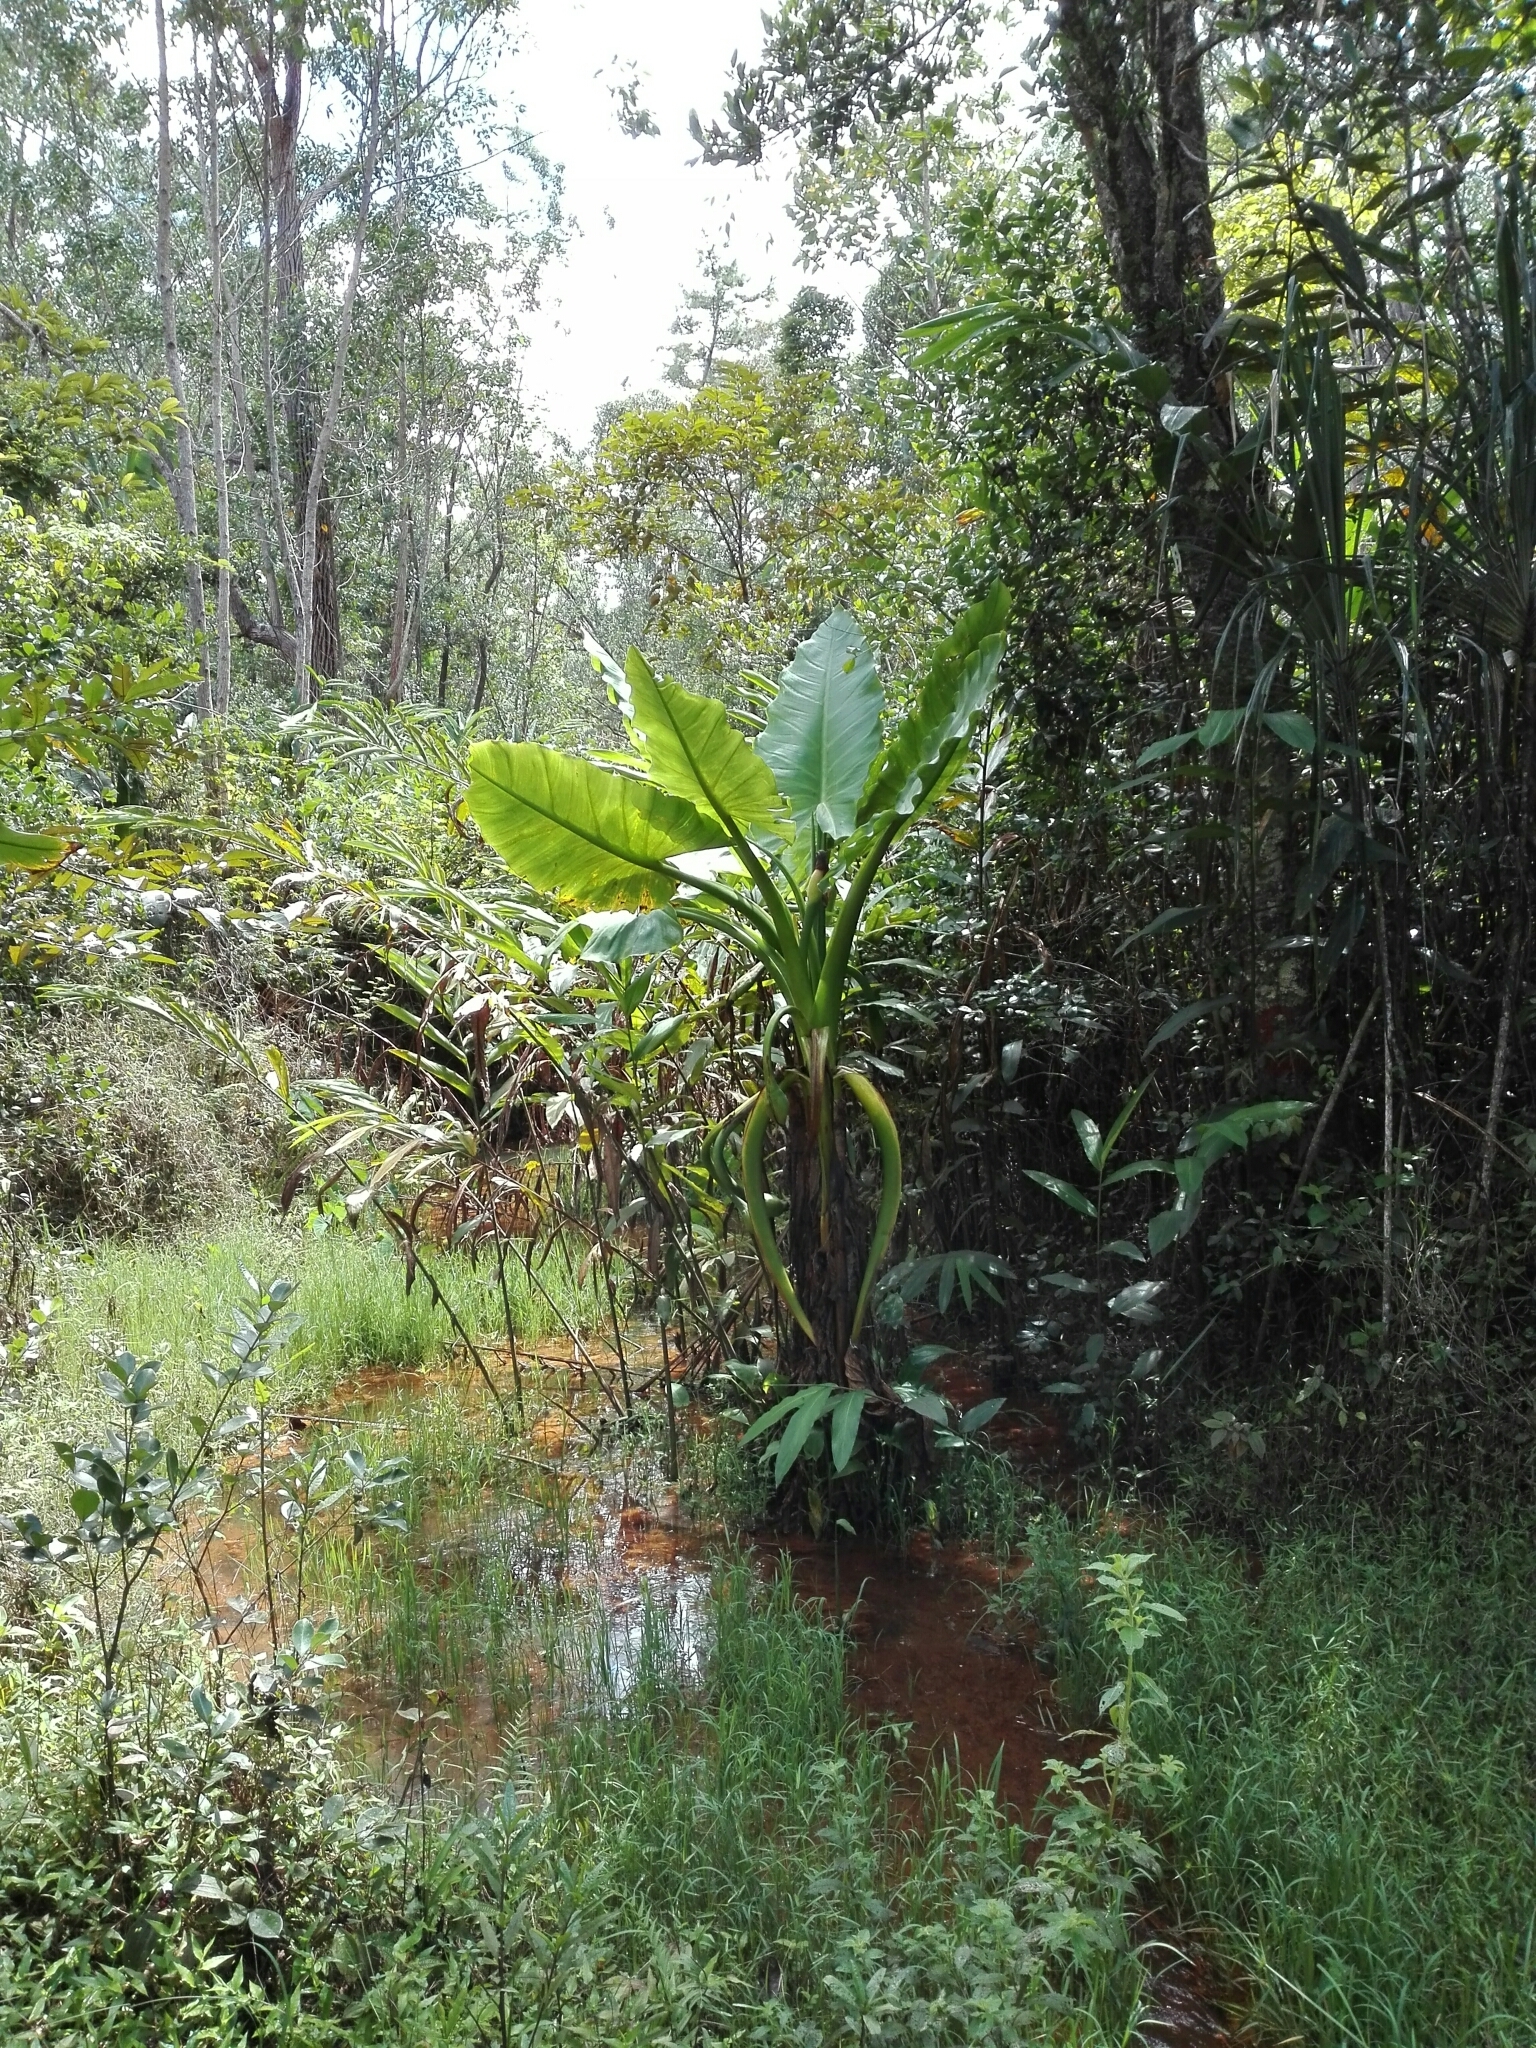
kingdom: Plantae
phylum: Tracheophyta
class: Liliopsida
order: Alismatales
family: Araceae
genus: Typhonodorum
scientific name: Typhonodorum lindleyanum
